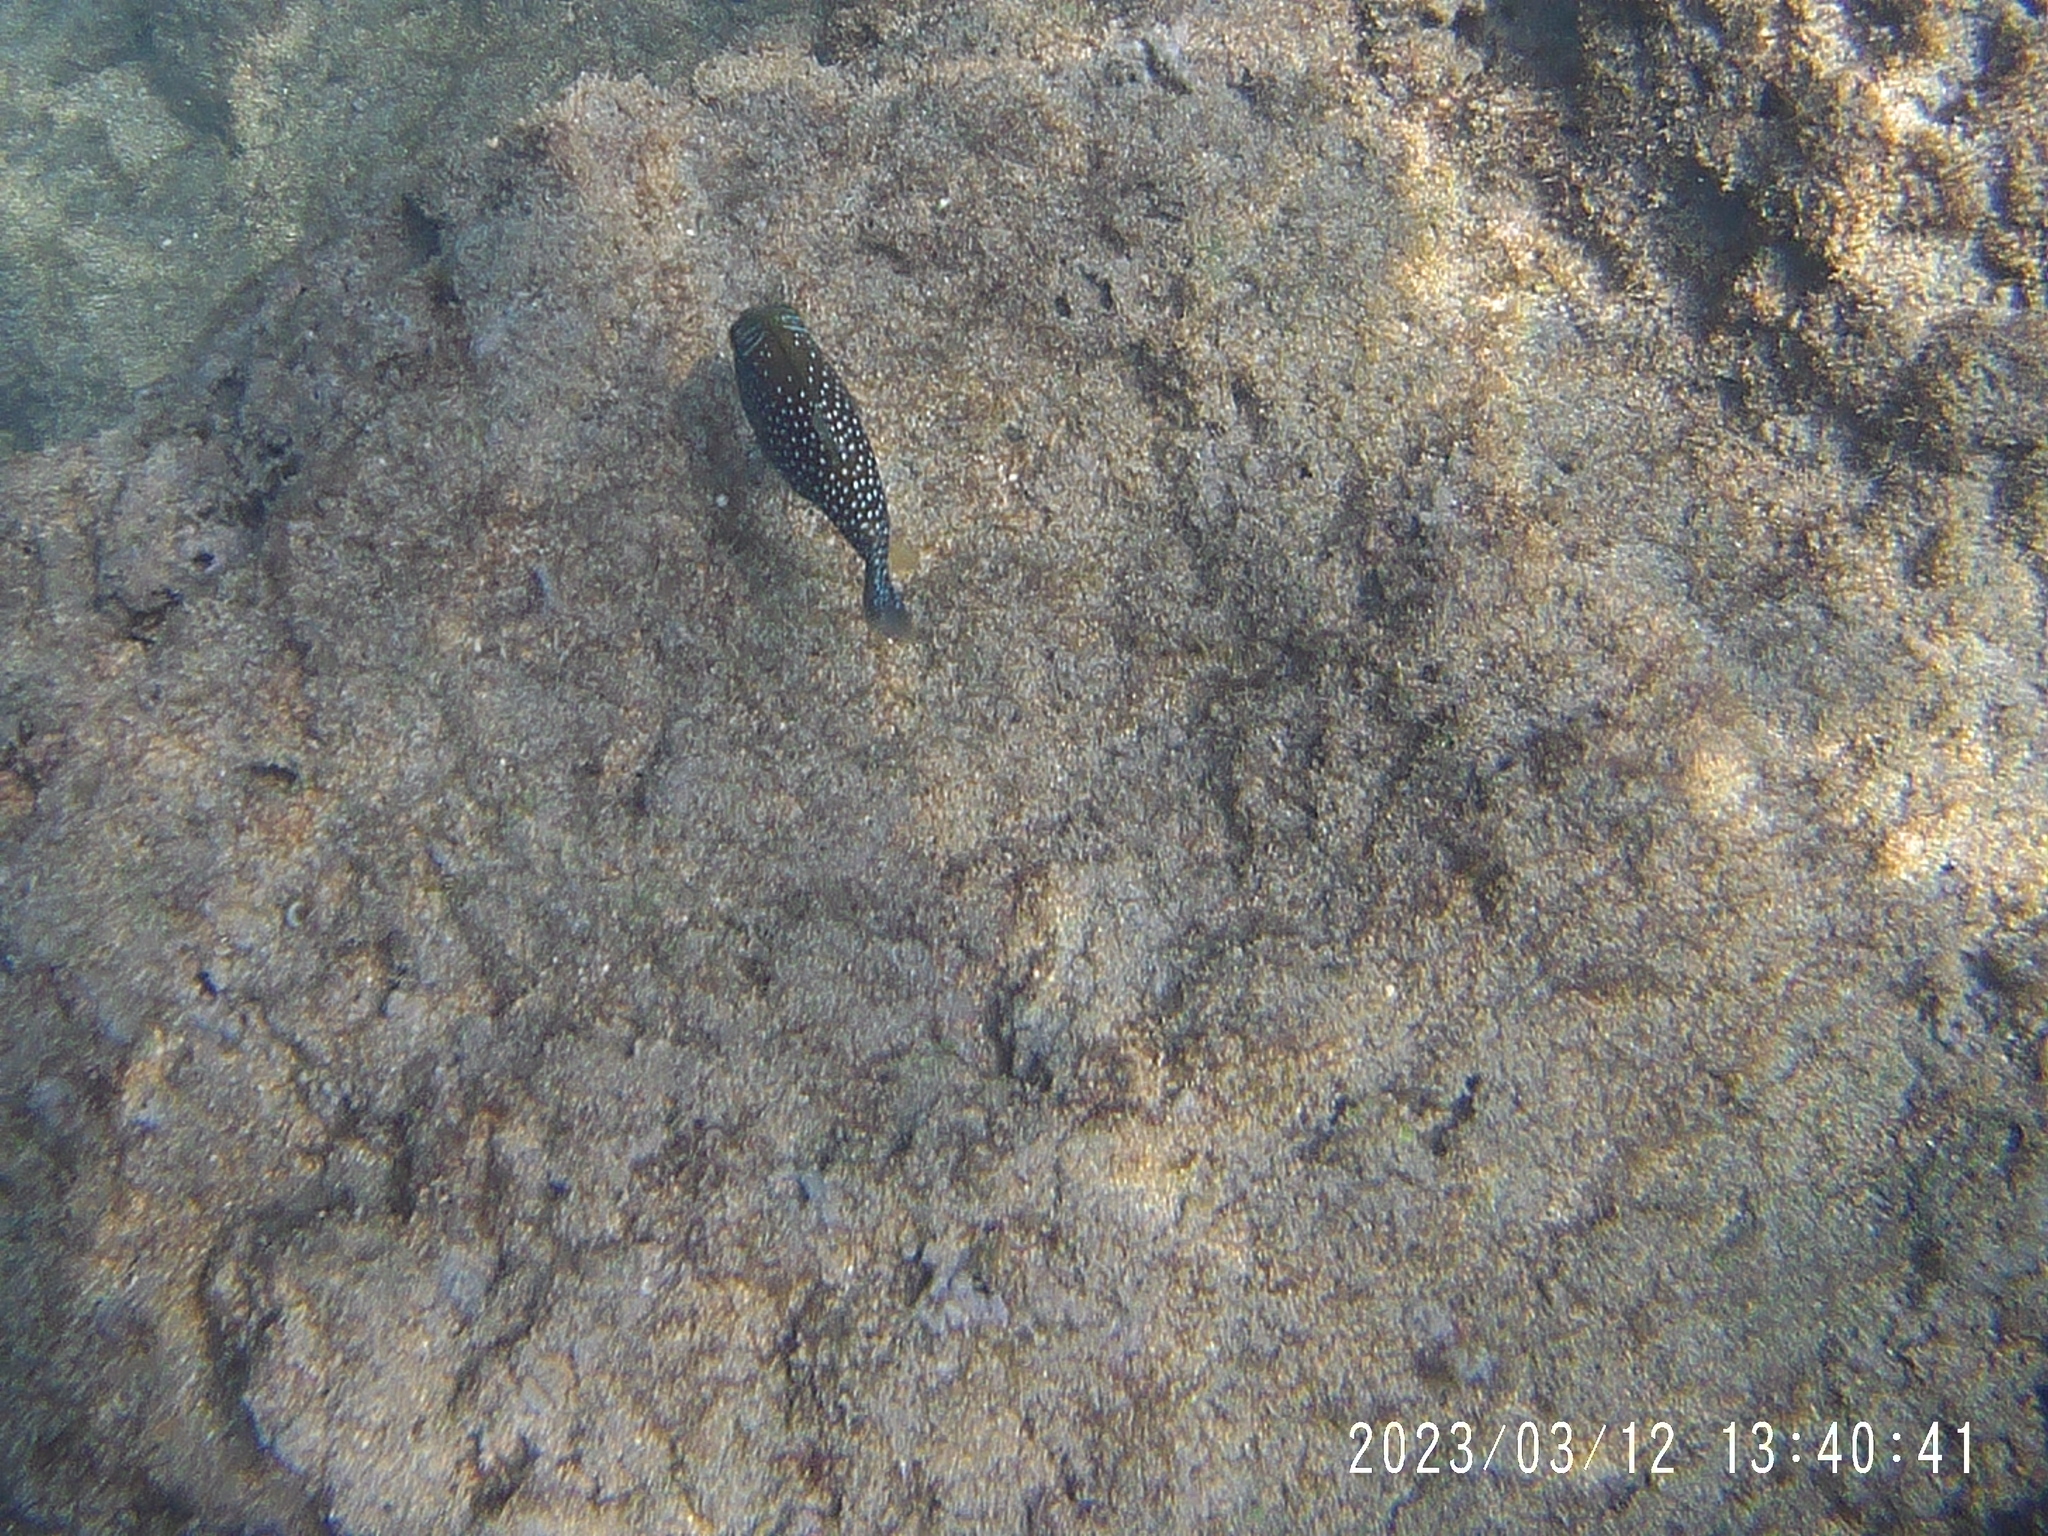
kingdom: Animalia
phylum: Chordata
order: Tetraodontiformes
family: Tetraodontidae
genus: Canthigaster
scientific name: Canthigaster amboinensis
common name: Ambon pufferfish
